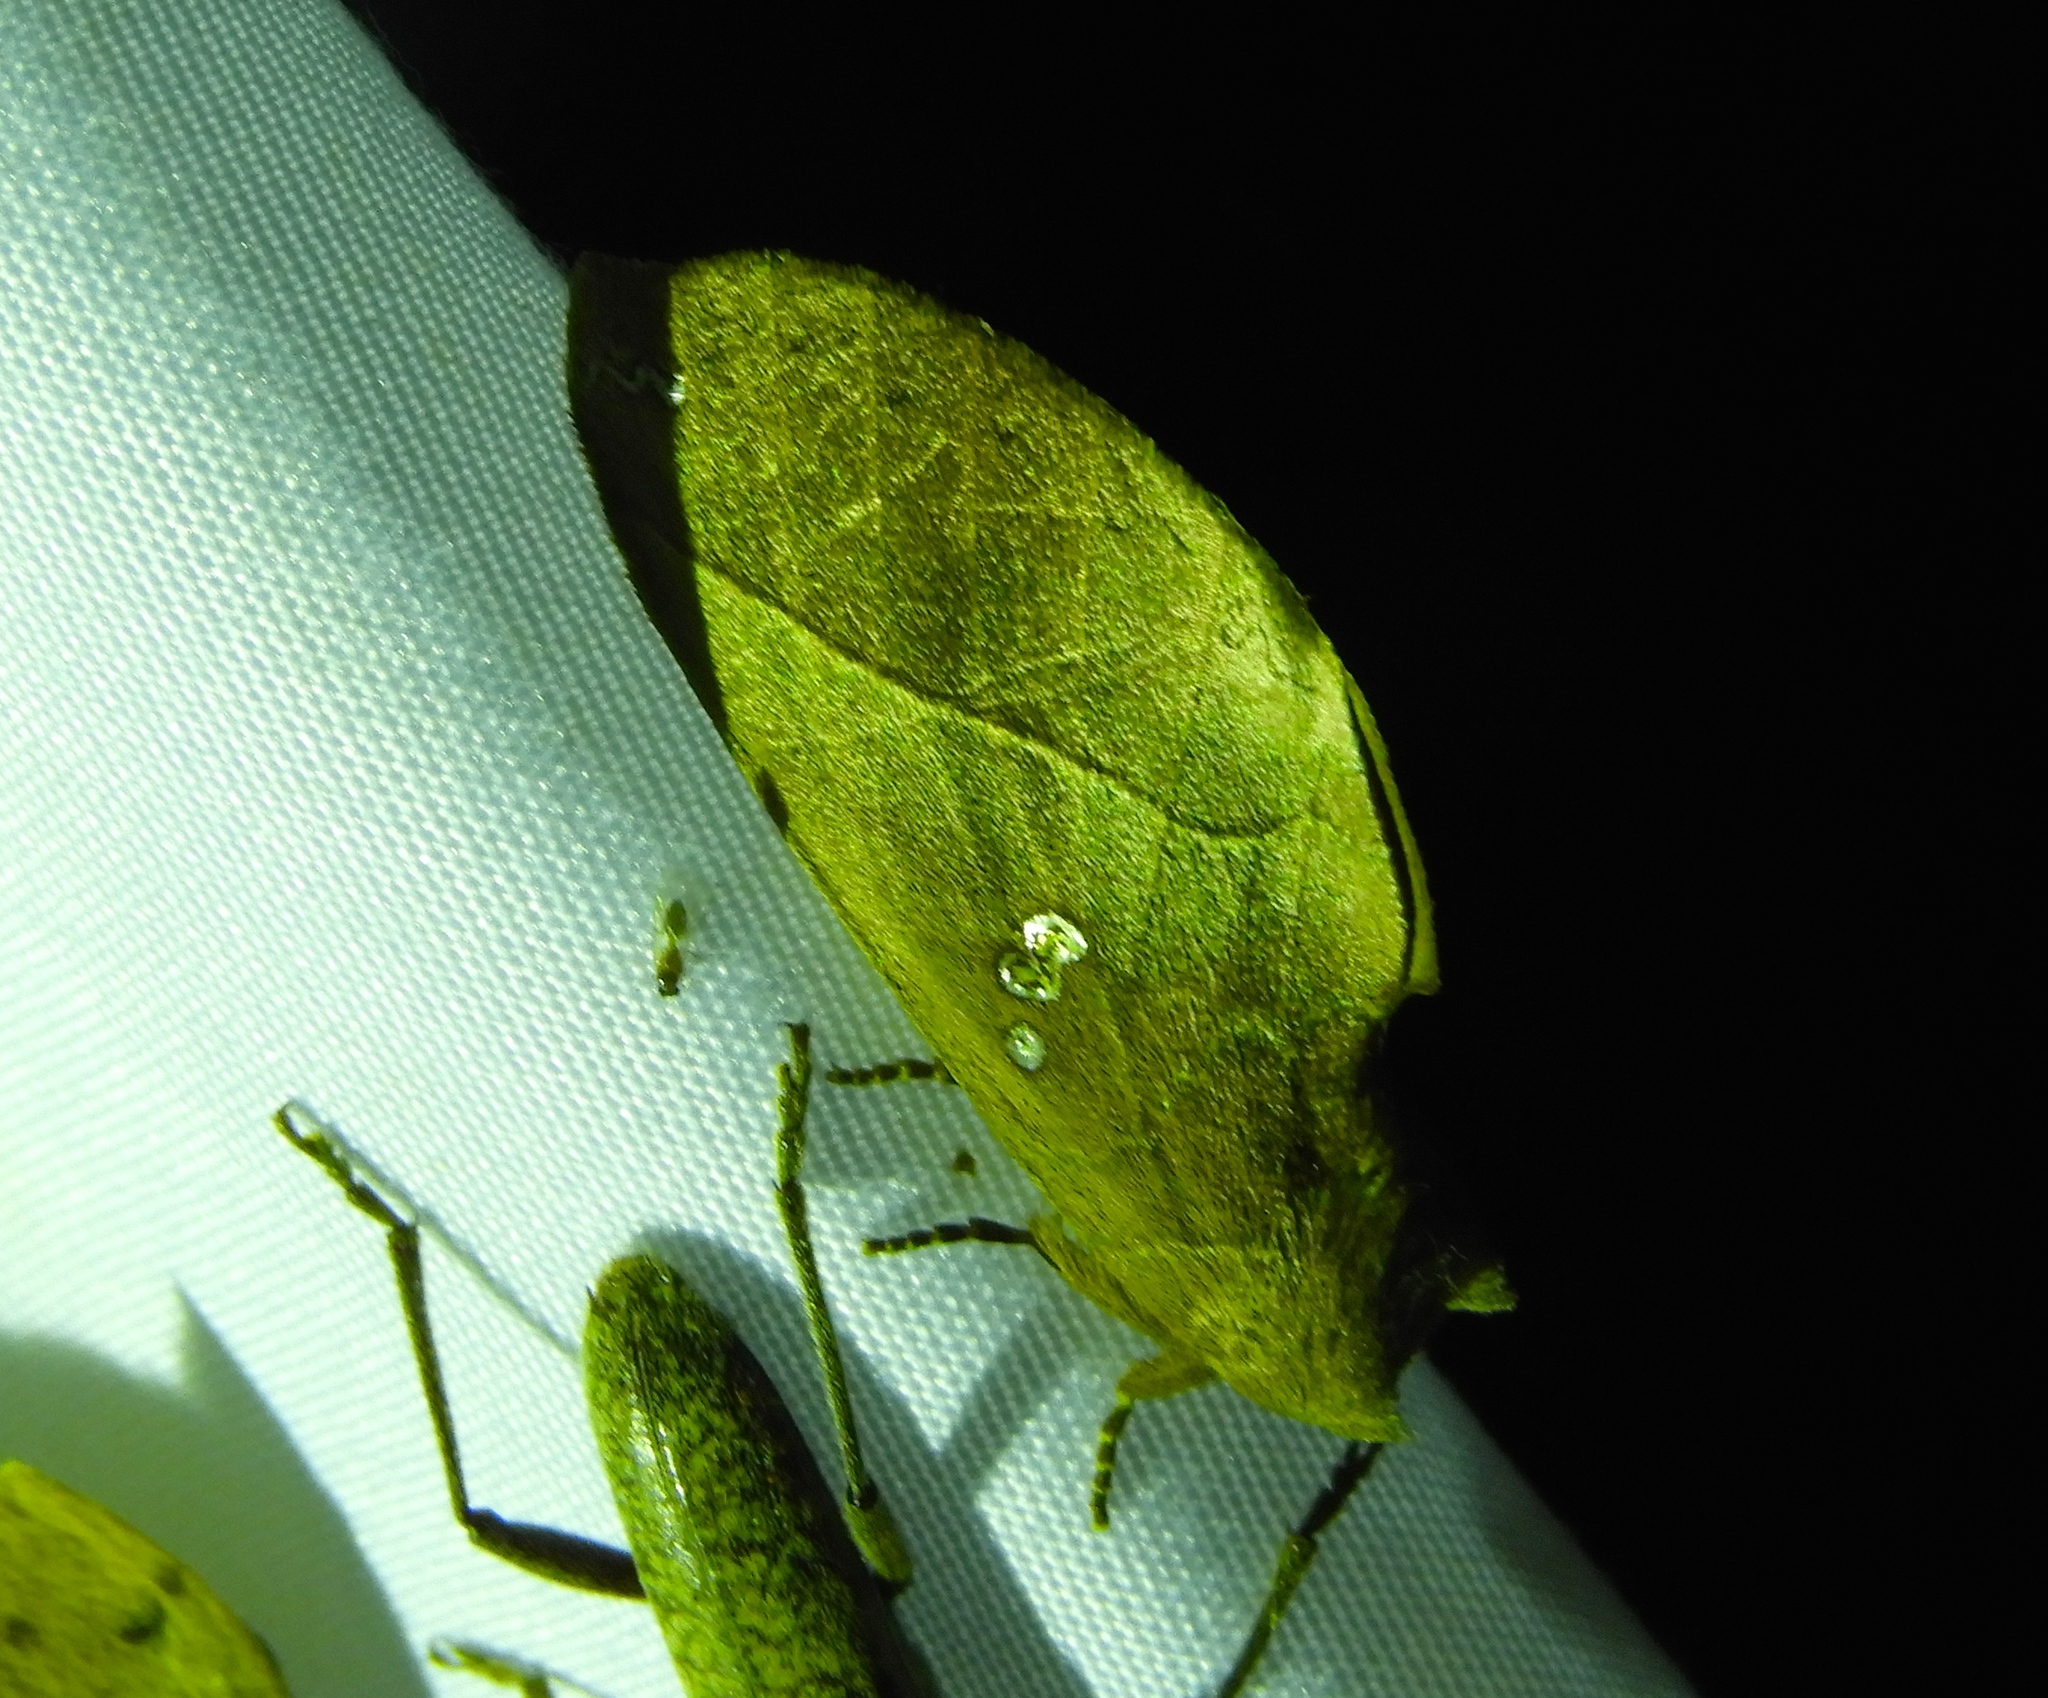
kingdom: Animalia
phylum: Arthropoda
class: Insecta
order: Lepidoptera
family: Notodontidae
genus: Pseudhapigia
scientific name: Pseudhapigia brunnea
